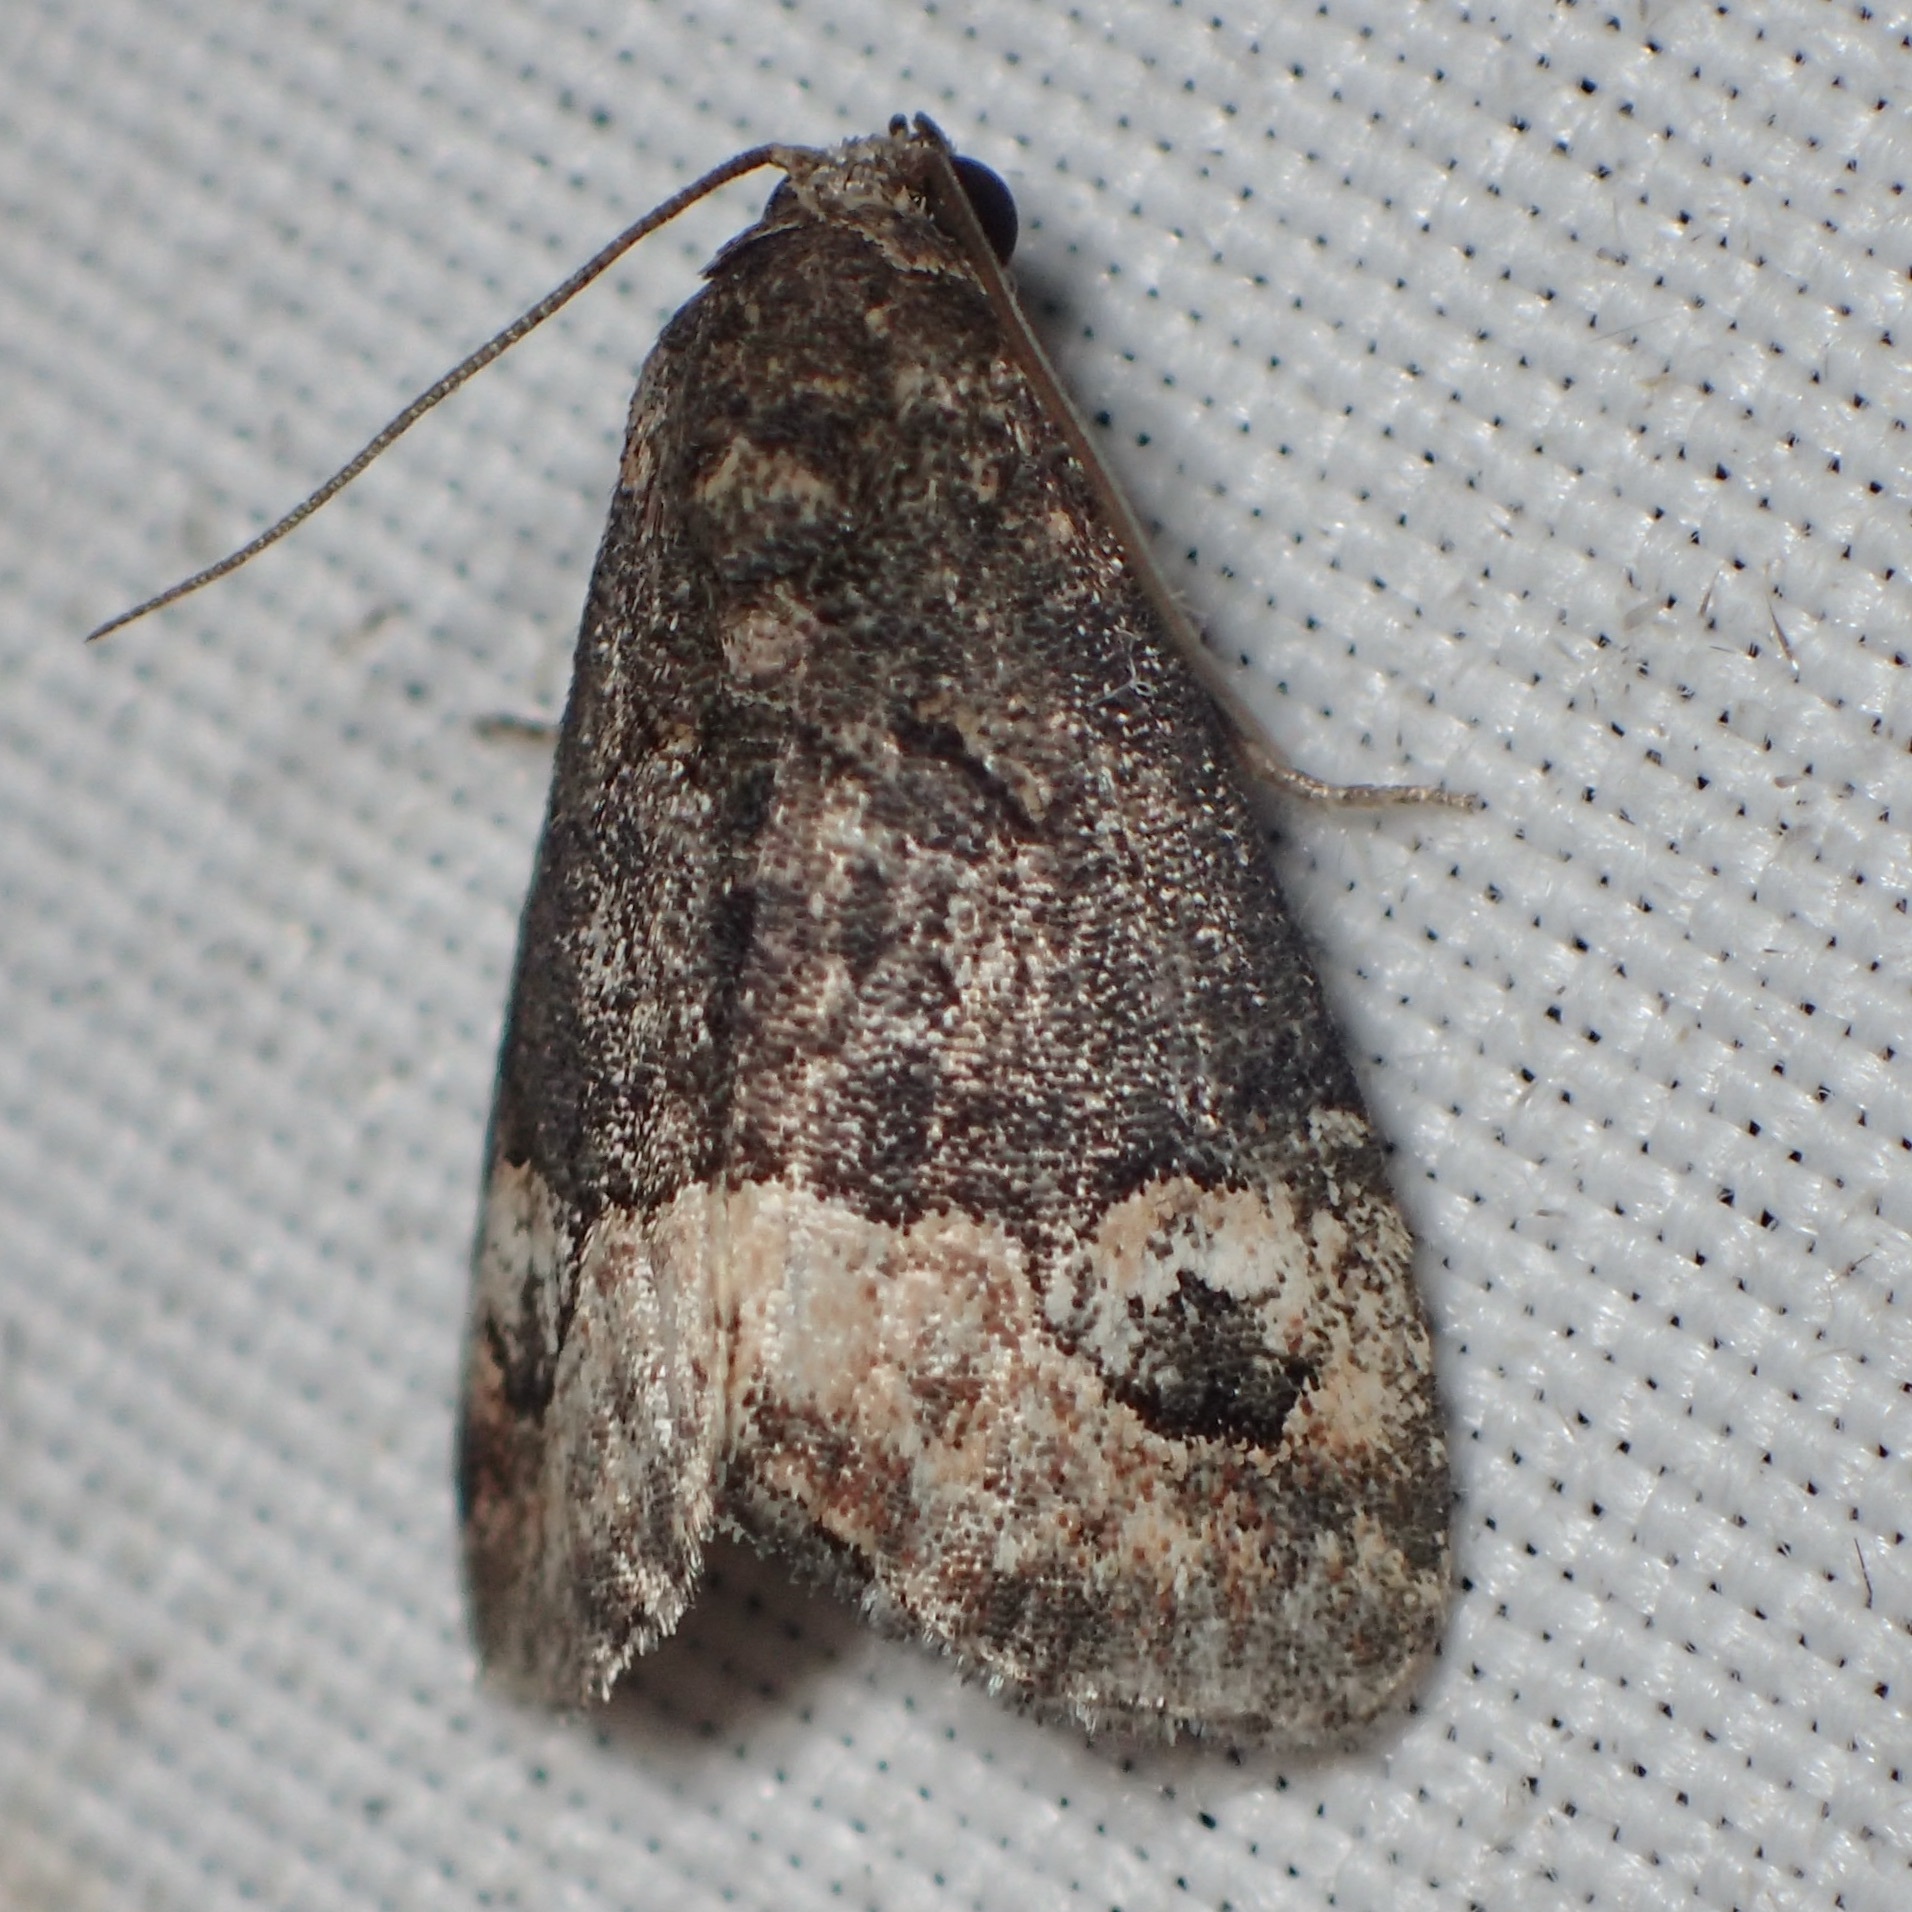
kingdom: Animalia
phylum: Arthropoda
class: Insecta
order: Lepidoptera
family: Noctuidae
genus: Ozarba
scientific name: Ozarba propera
